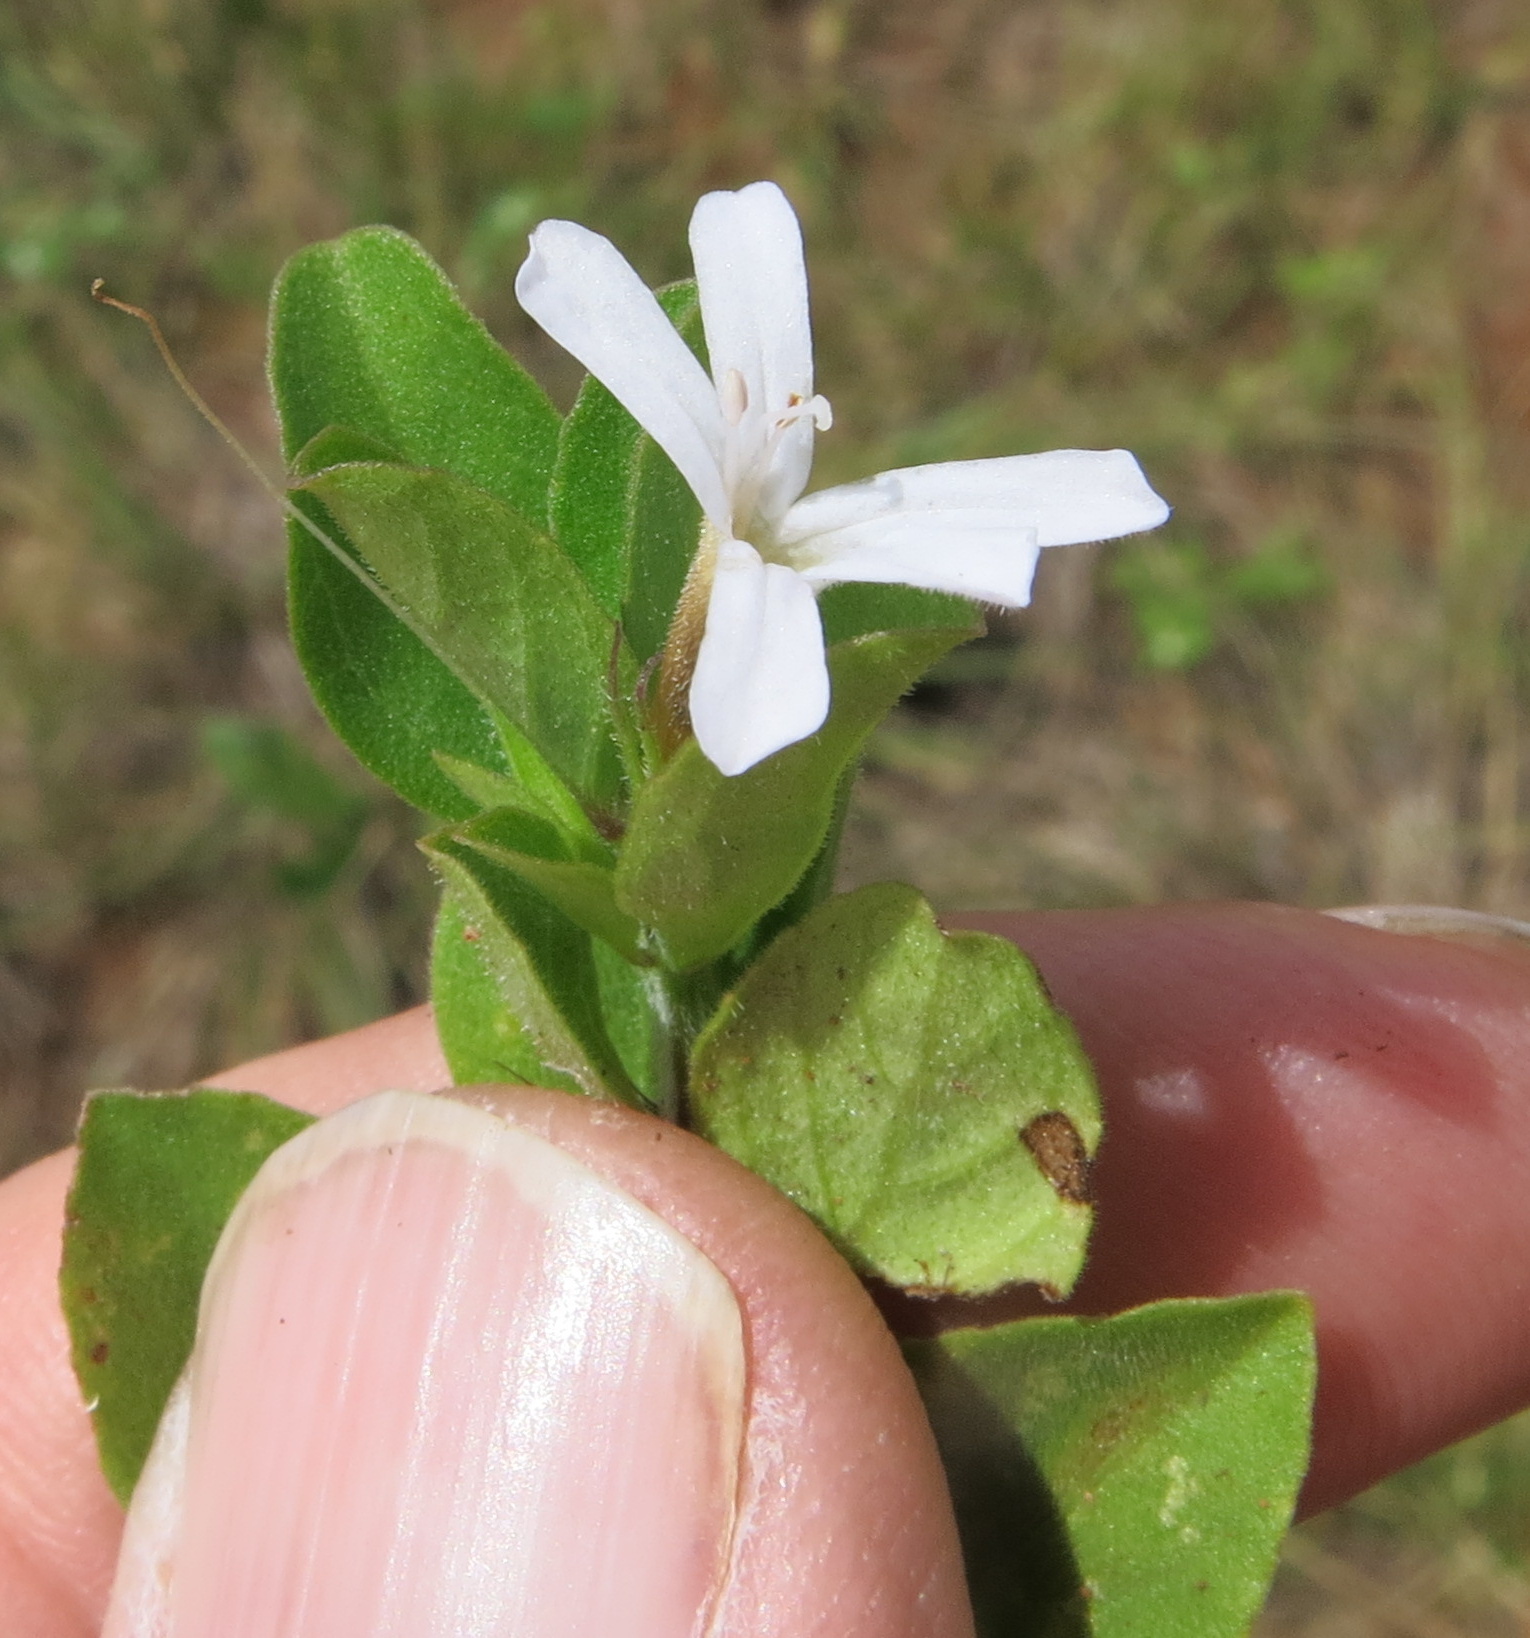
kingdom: Plantae
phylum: Tracheophyta
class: Magnoliopsida
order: Lamiales
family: Acanthaceae
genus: Dyschoriste
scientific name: Dyschoriste setigera
